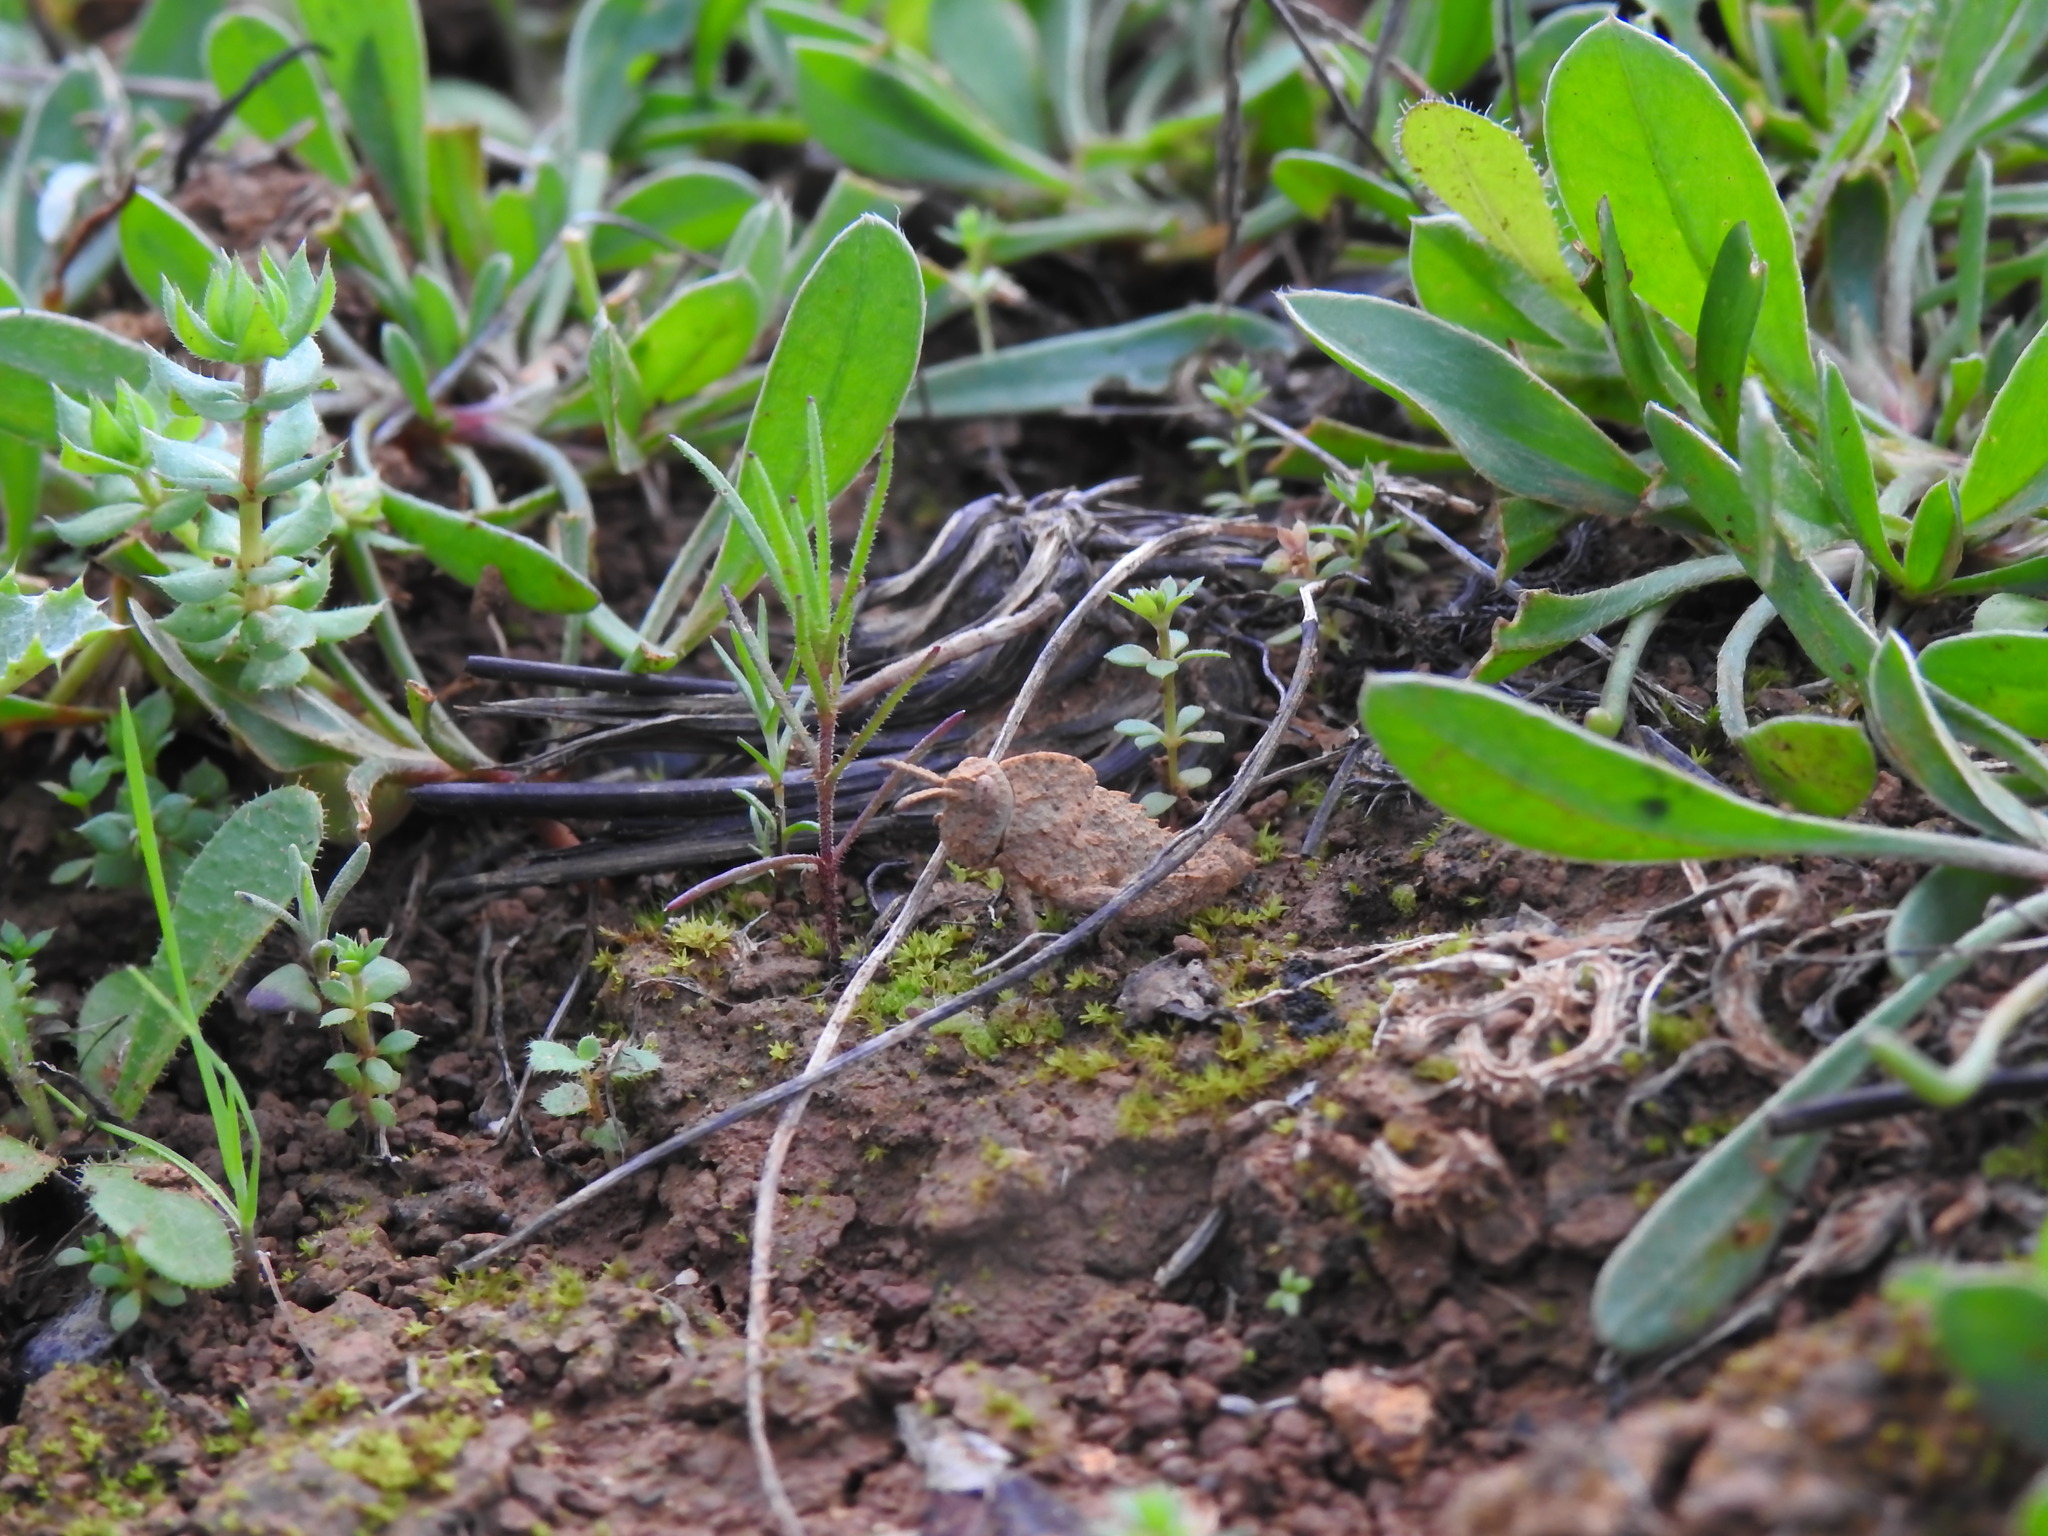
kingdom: Animalia
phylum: Arthropoda
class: Insecta
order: Orthoptera
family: Pamphagidae
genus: Ocnerodes
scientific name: Ocnerodes fallaciosus
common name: Misleading stone grasshopper
